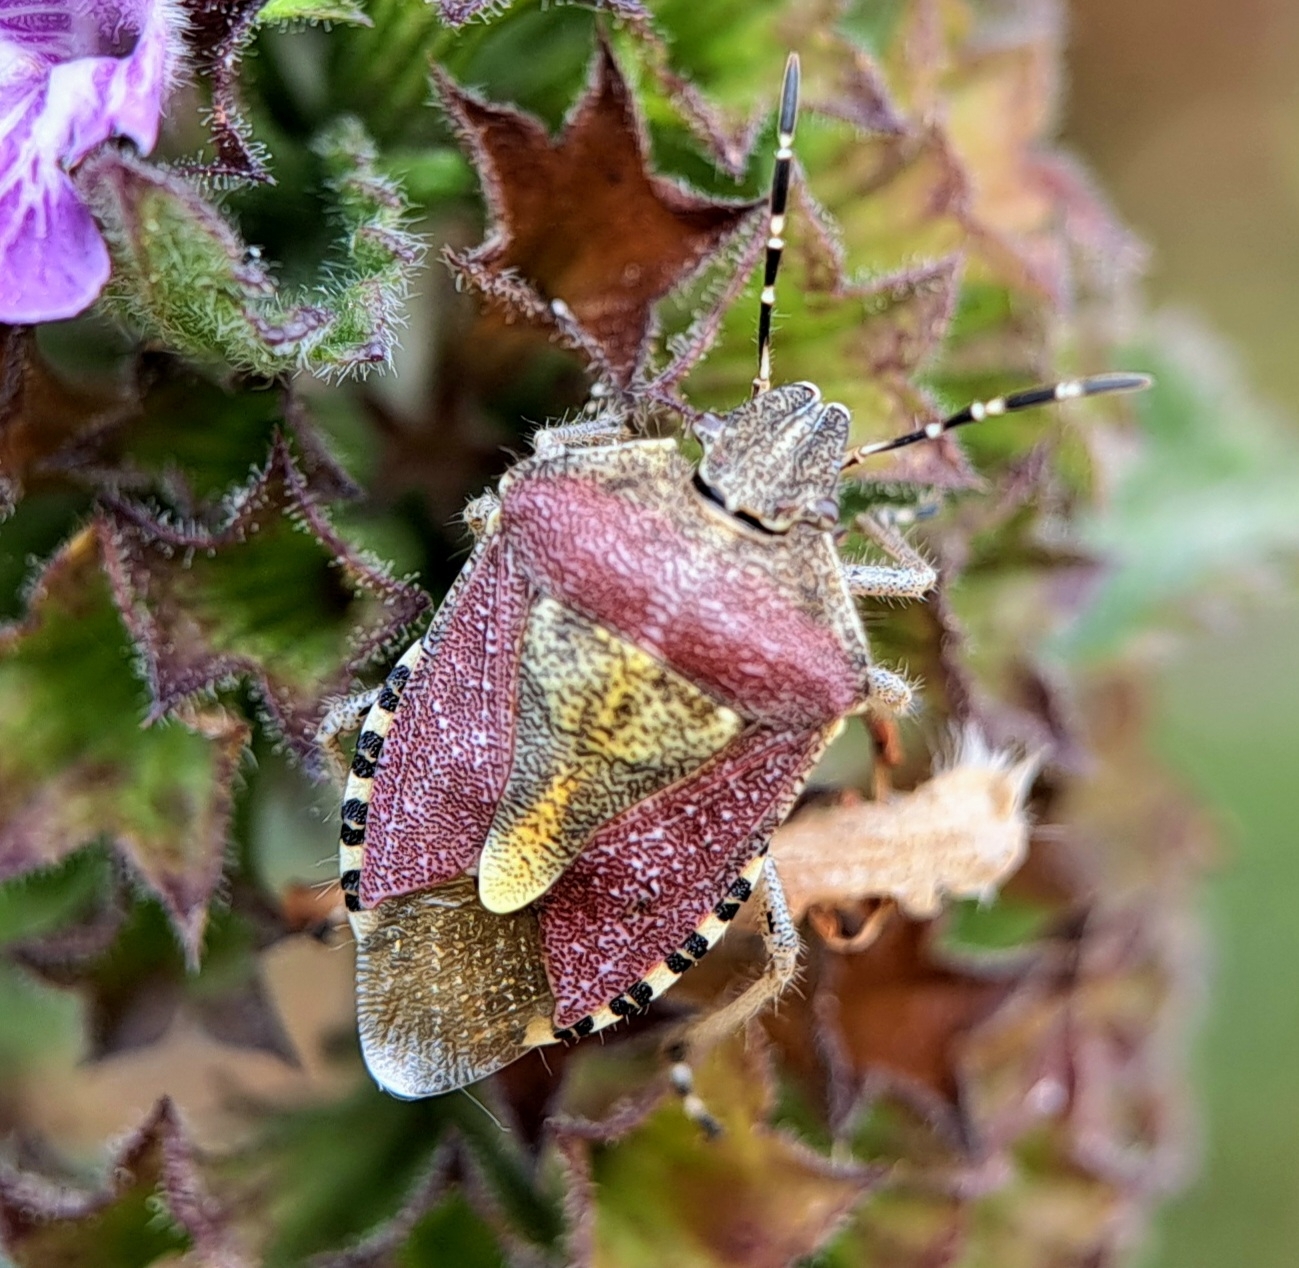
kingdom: Animalia
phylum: Arthropoda
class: Insecta
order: Hemiptera
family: Pentatomidae
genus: Dolycoris
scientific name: Dolycoris baccarum
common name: Sloe bug
